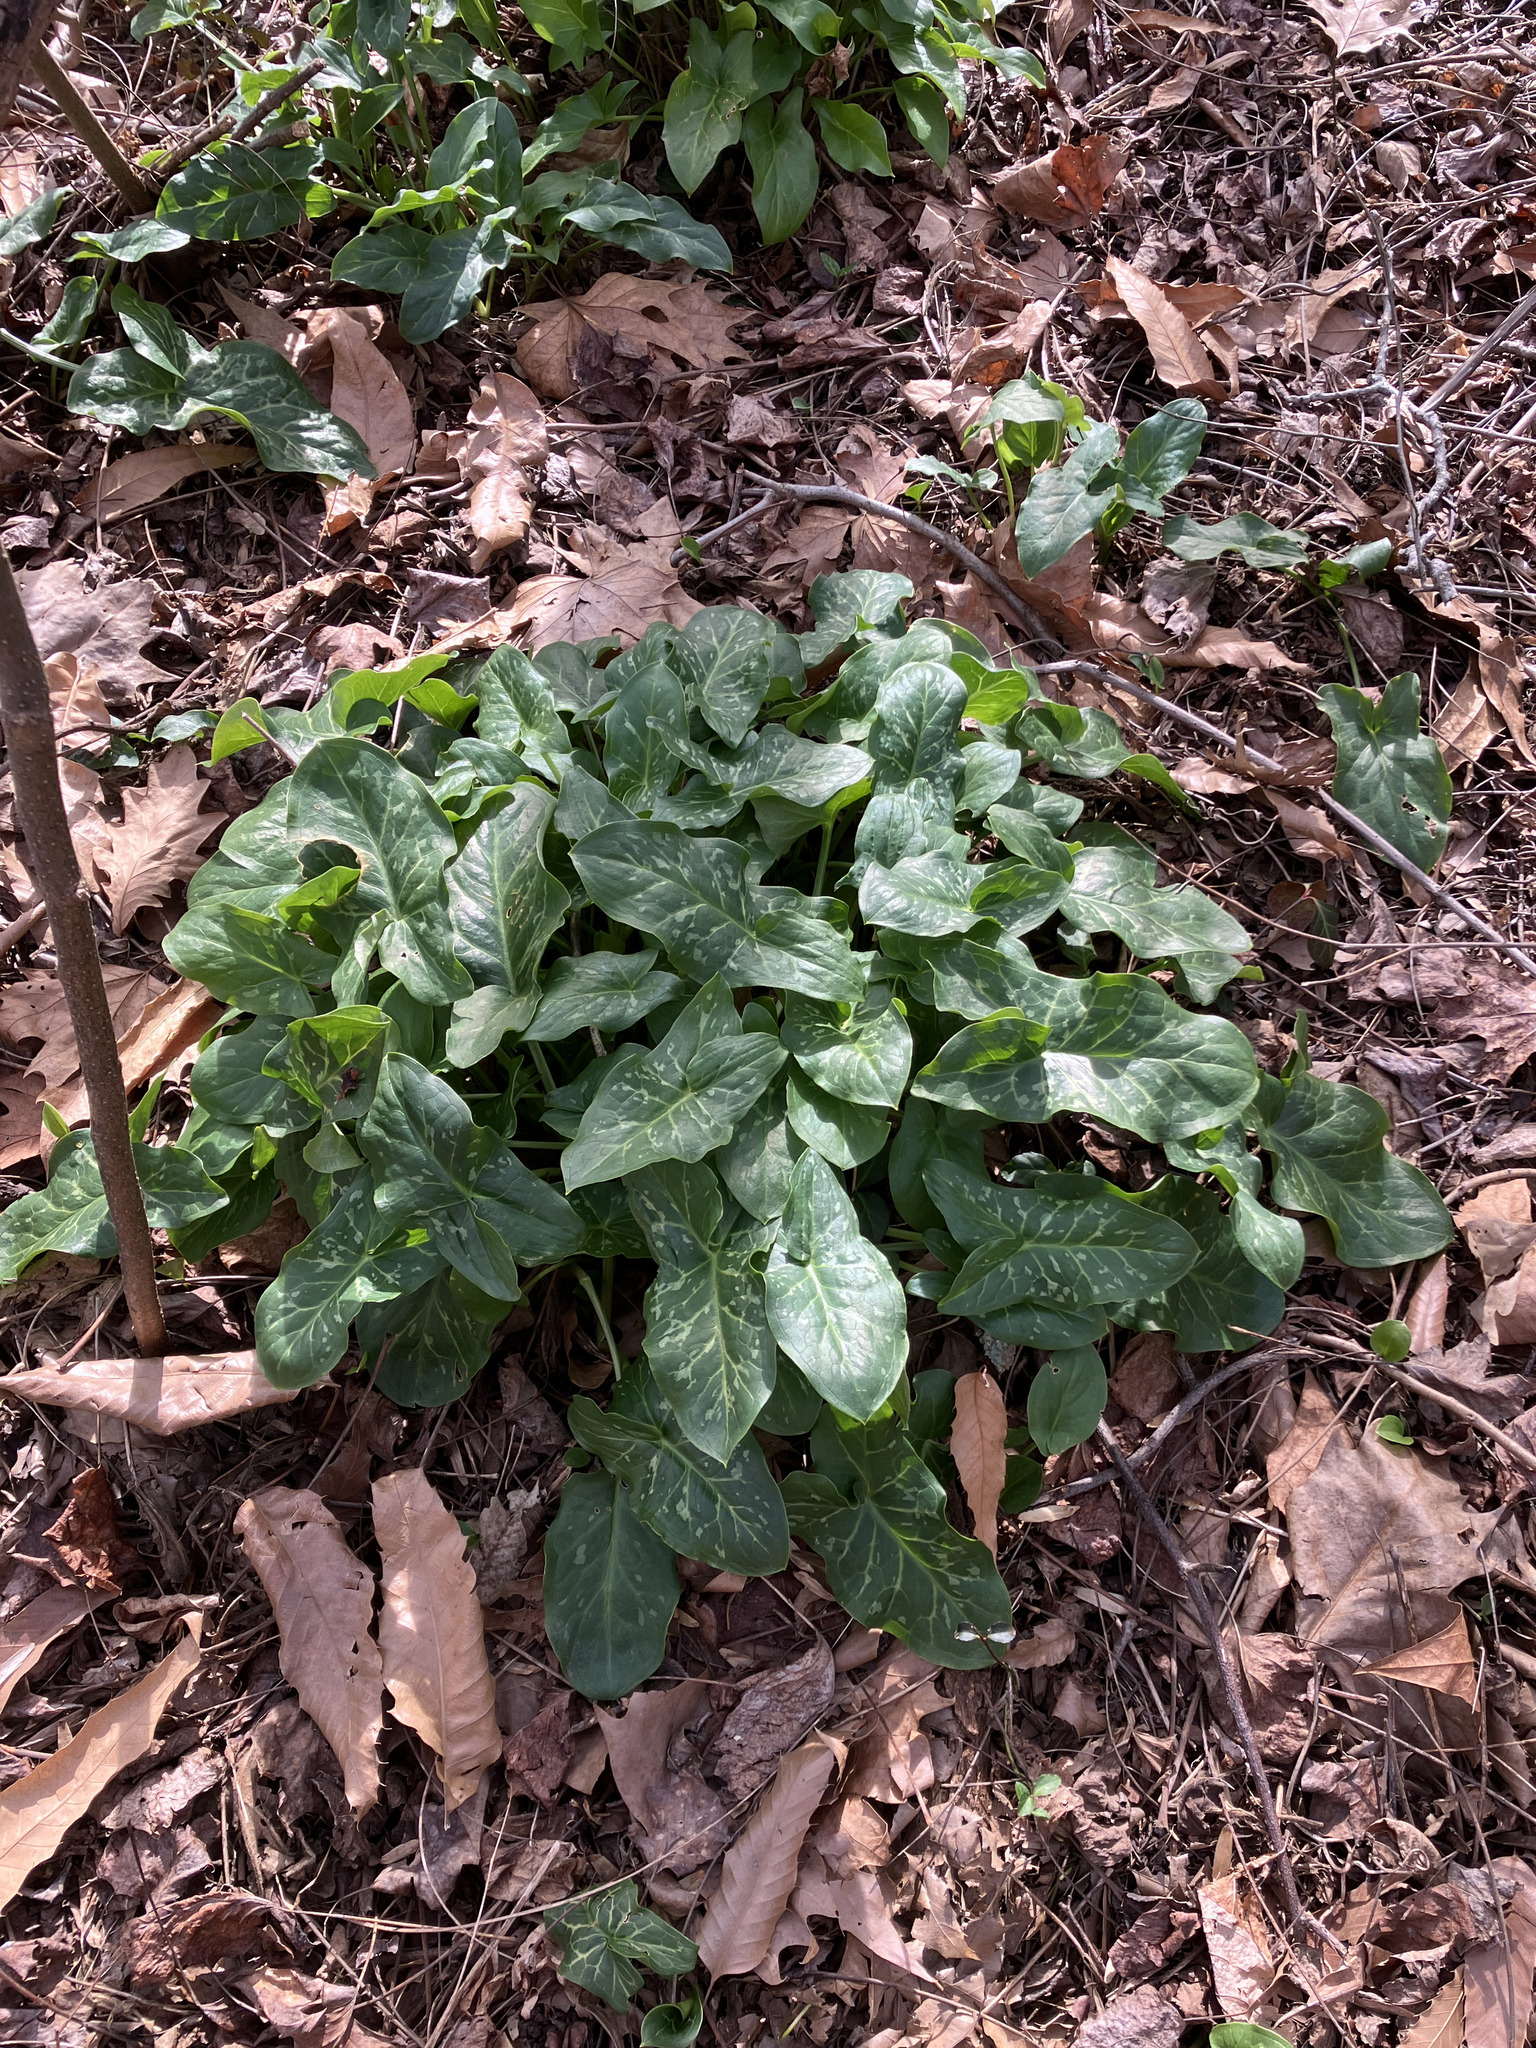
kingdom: Plantae
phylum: Tracheophyta
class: Liliopsida
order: Alismatales
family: Araceae
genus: Arum
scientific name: Arum italicum
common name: Italian lords-and-ladies
